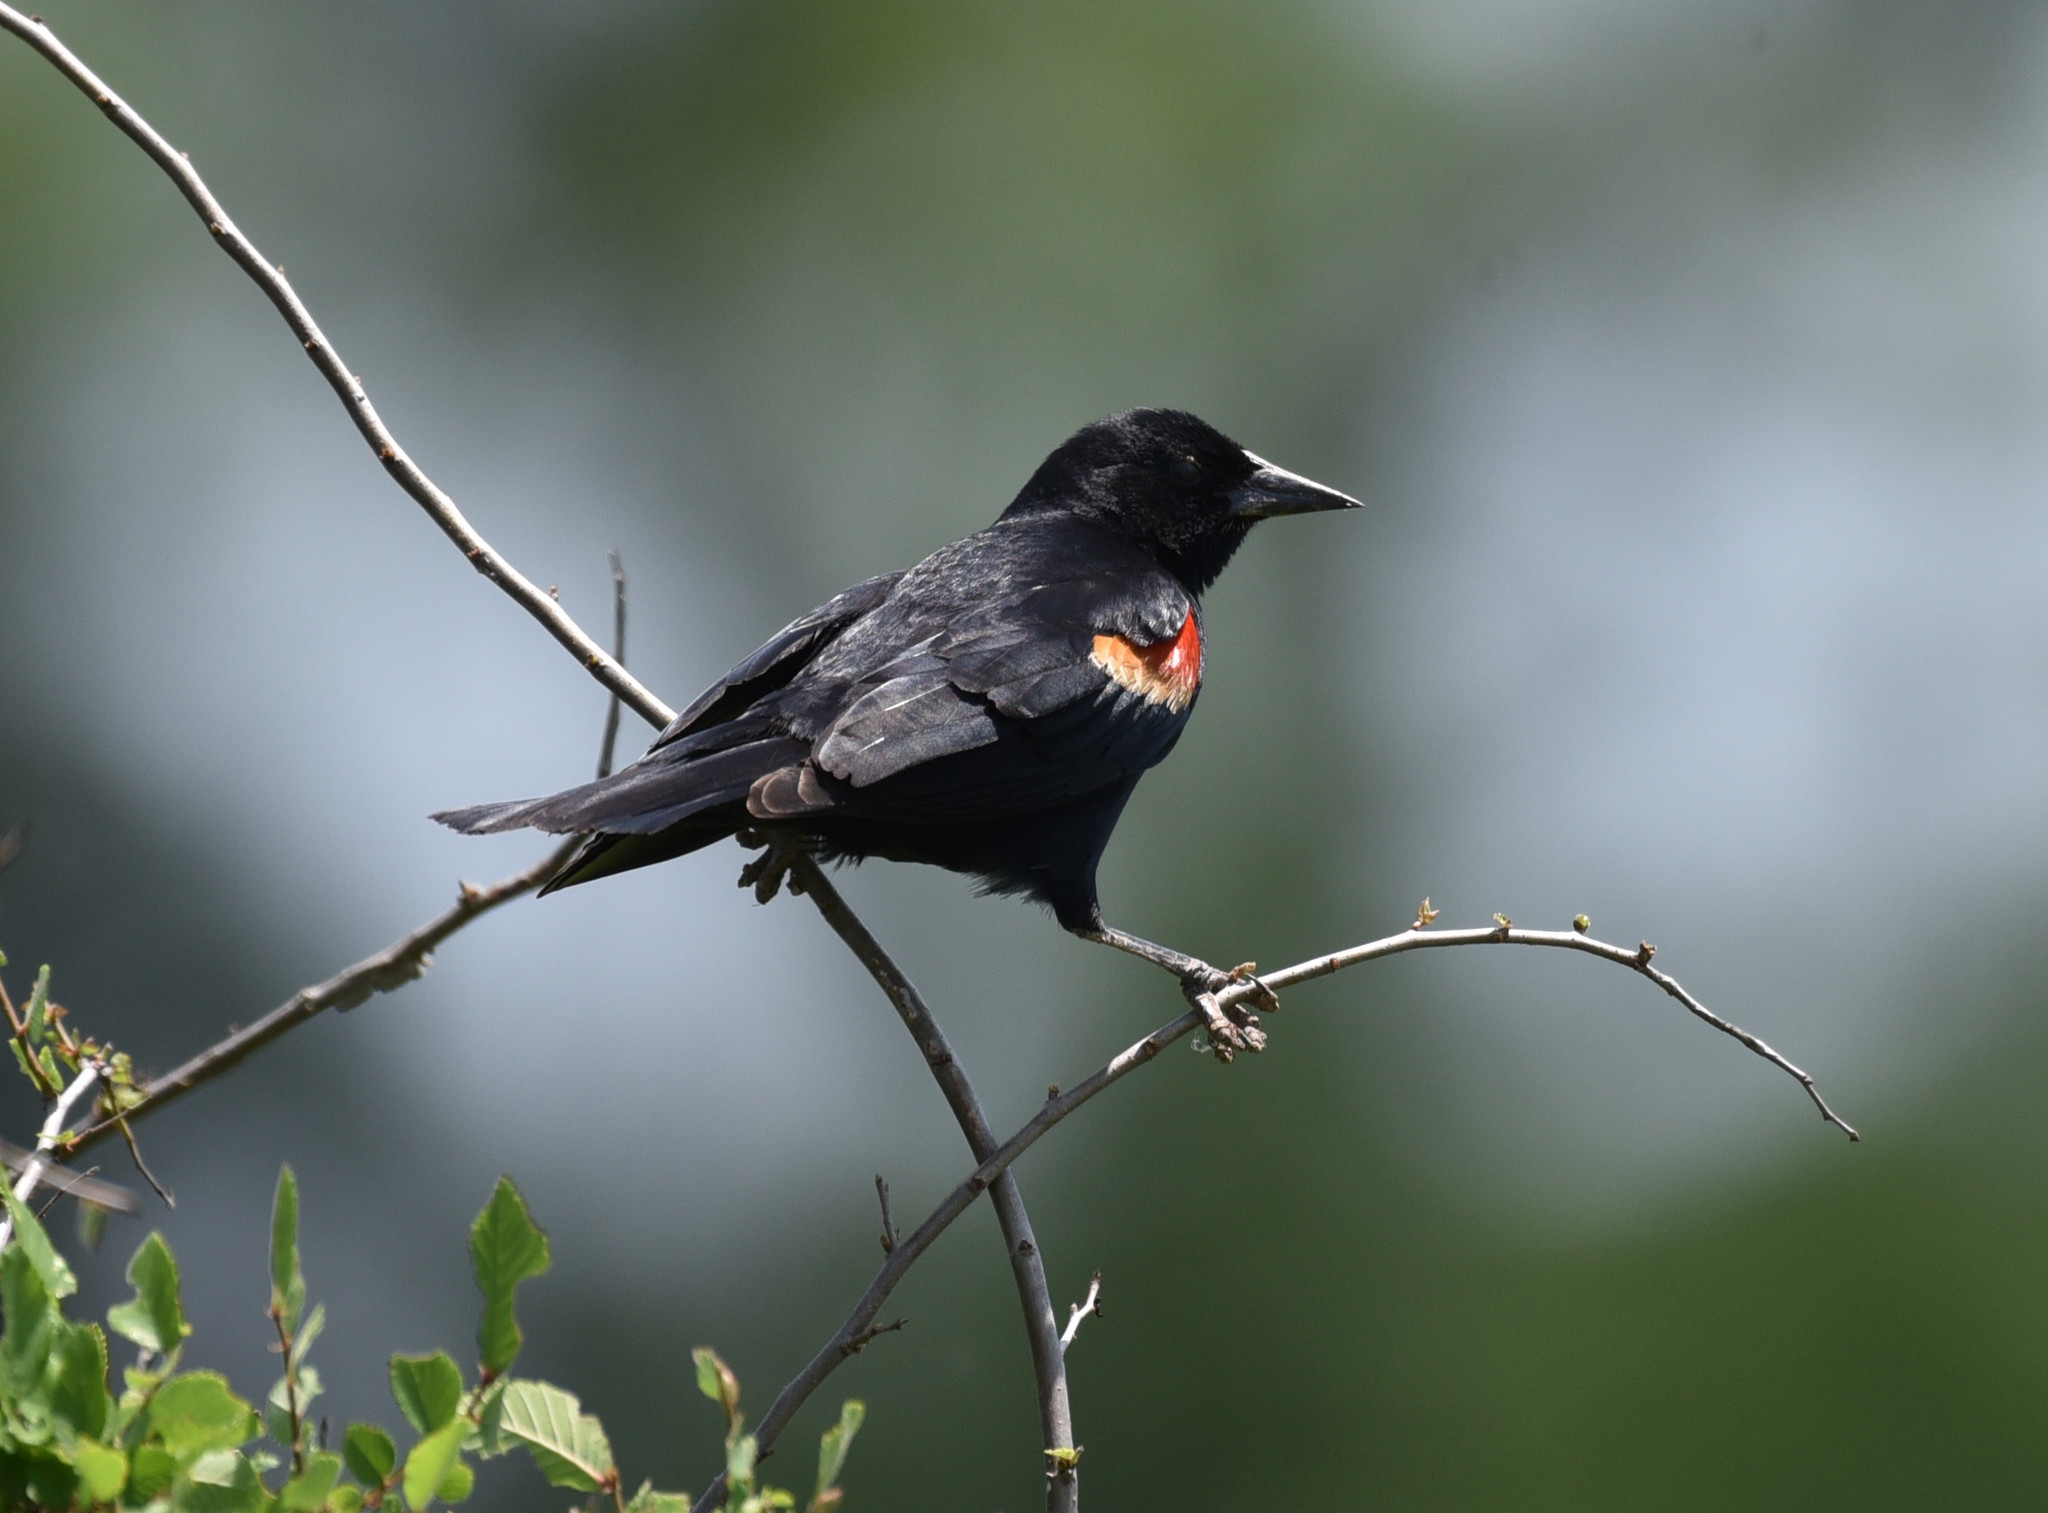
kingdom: Animalia
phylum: Chordata
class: Aves
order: Passeriformes
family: Icteridae
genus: Agelaius
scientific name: Agelaius phoeniceus
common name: Red-winged blackbird
